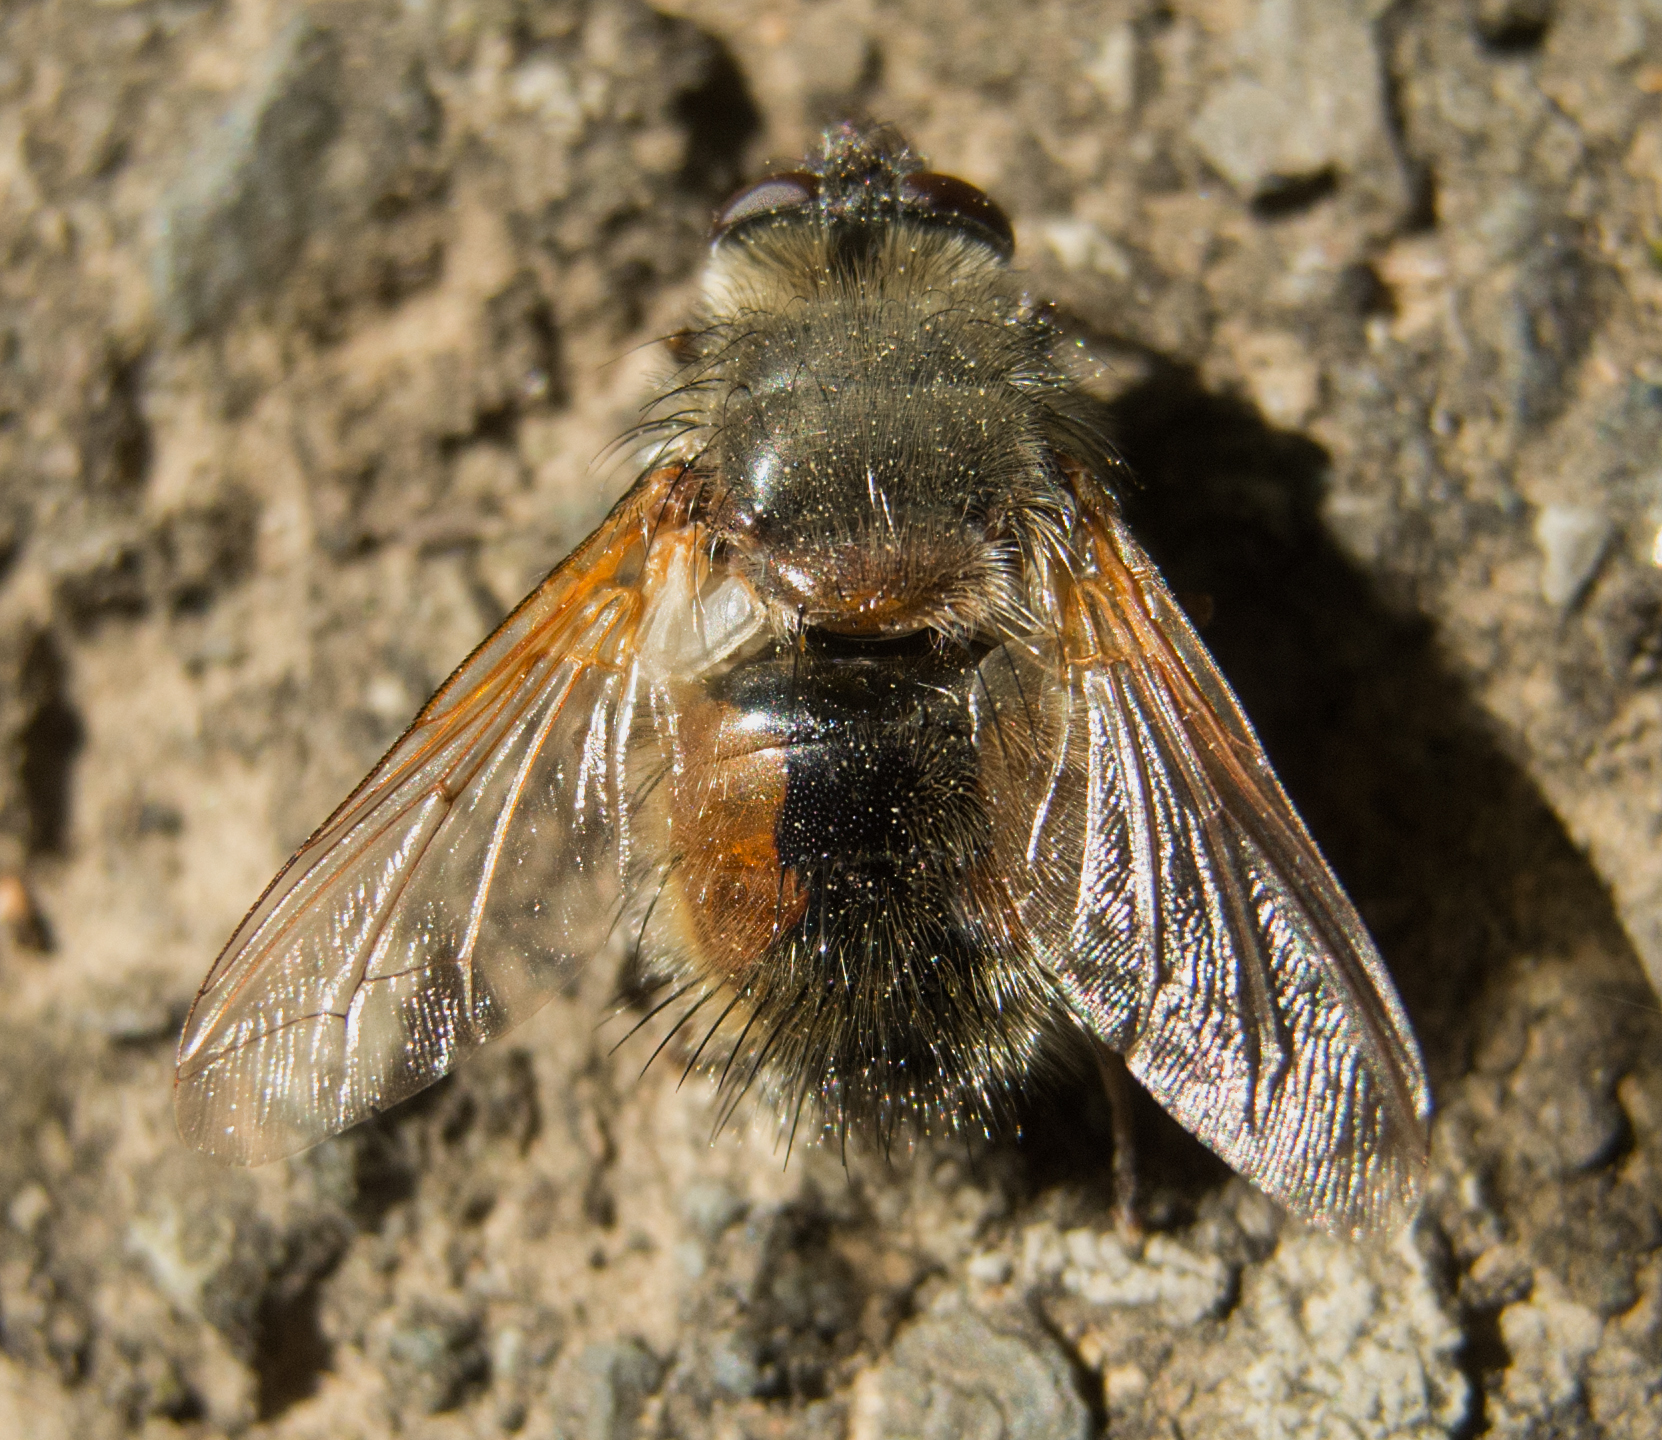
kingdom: Animalia
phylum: Arthropoda
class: Insecta
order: Diptera
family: Tachinidae
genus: Tachina
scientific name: Tachina lurida
